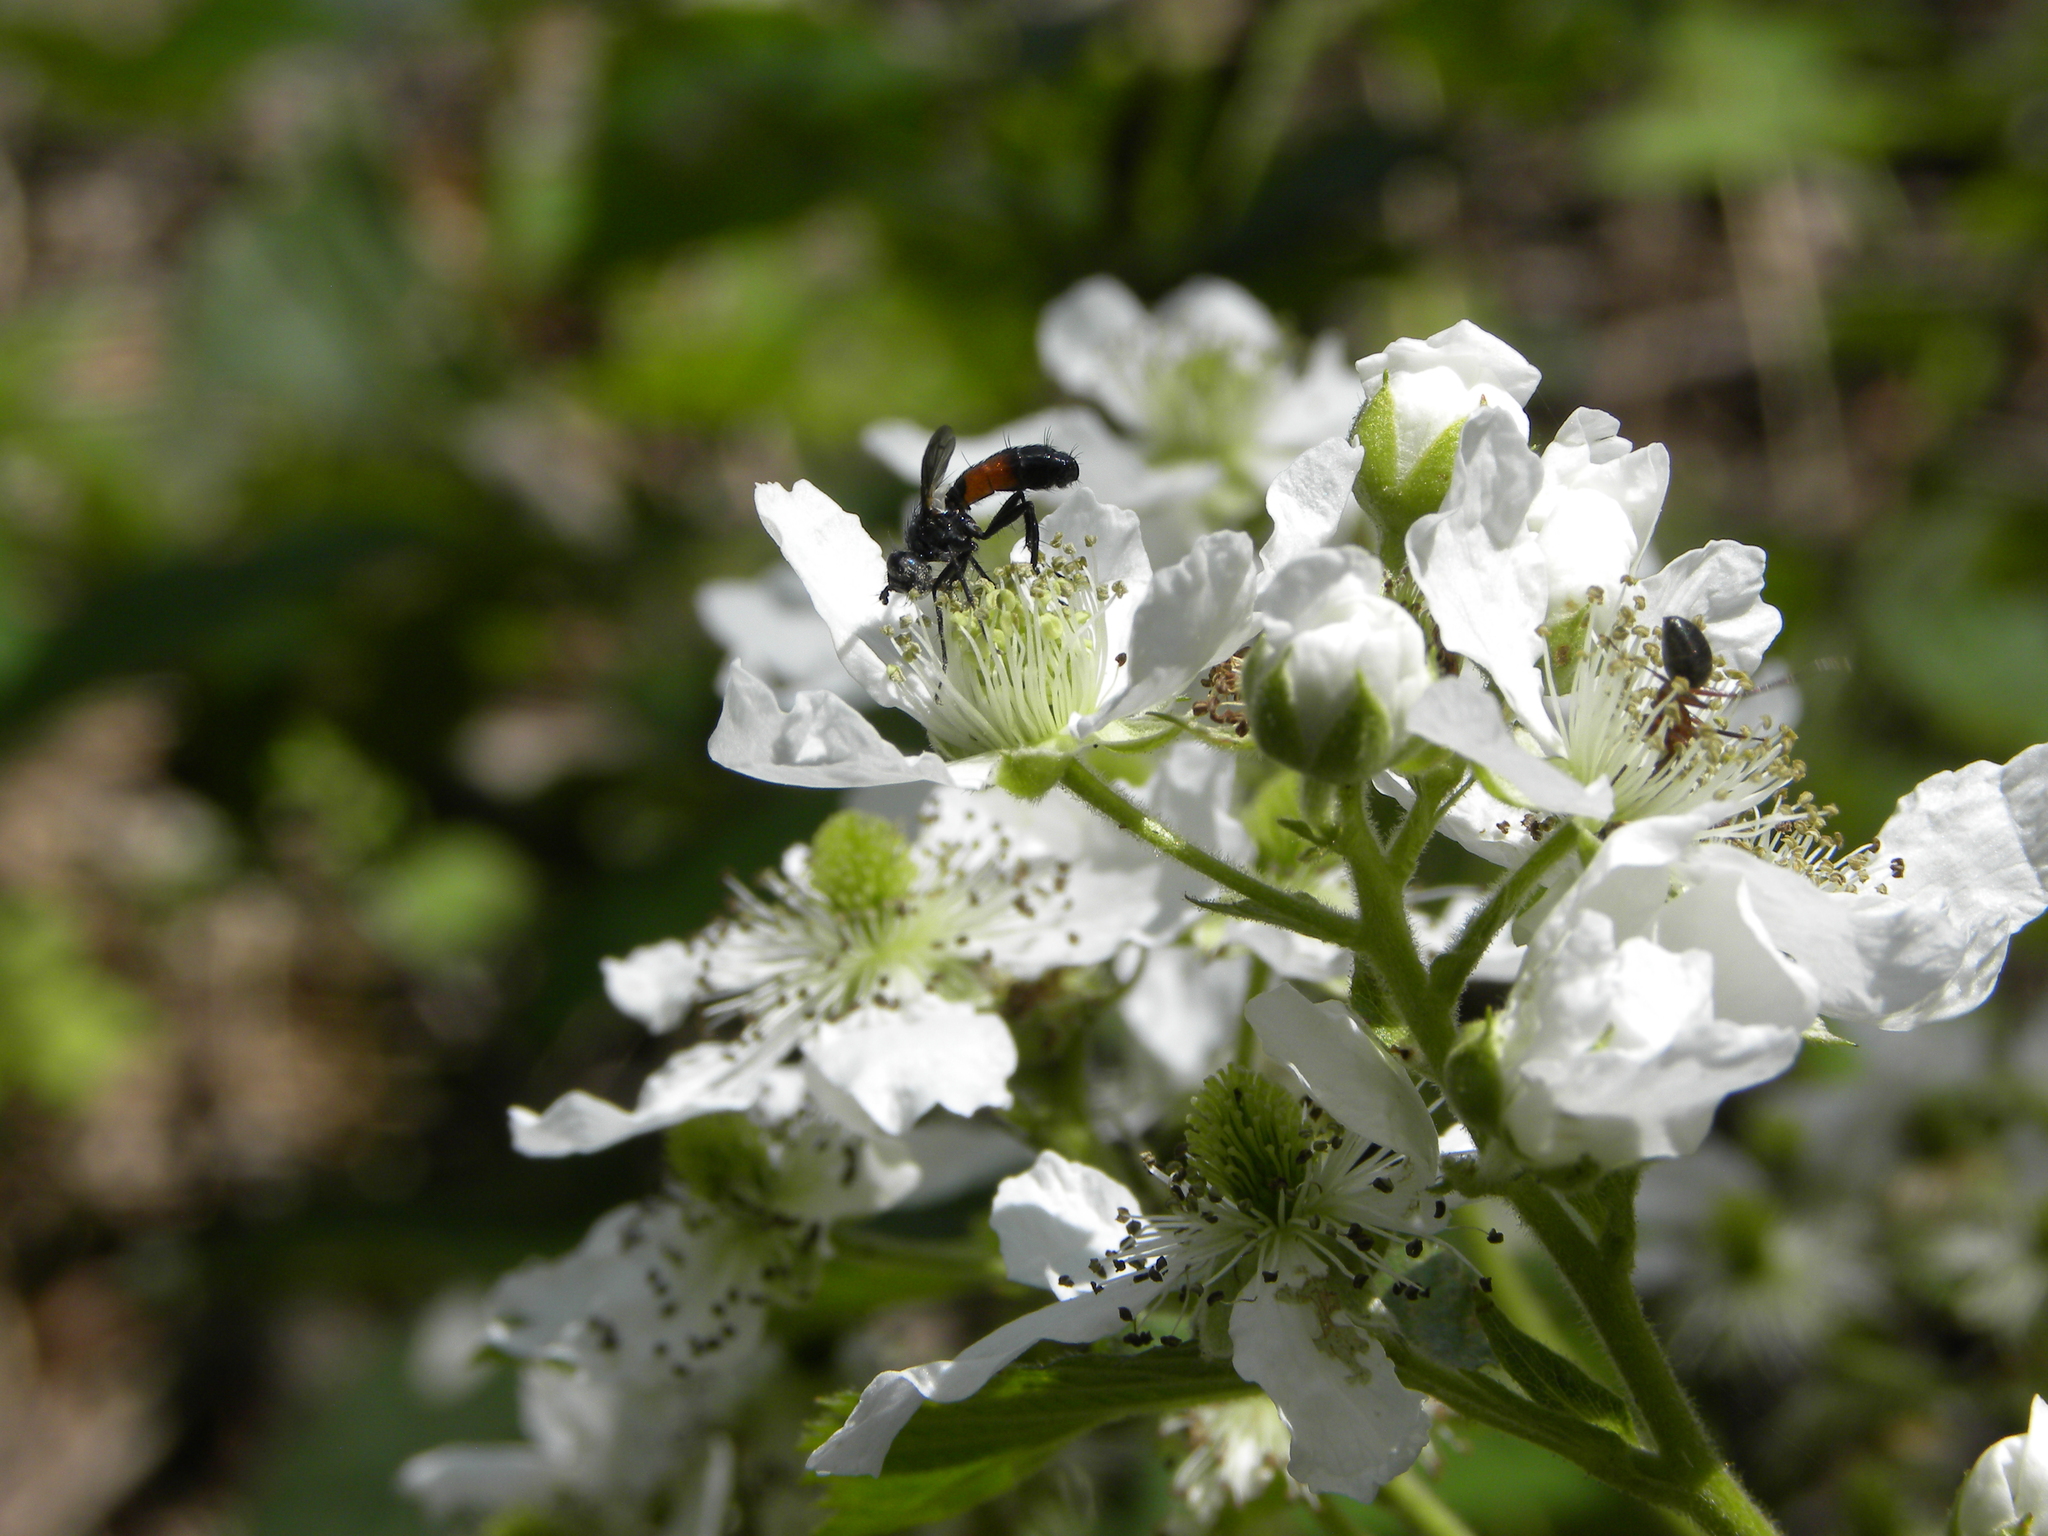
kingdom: Animalia
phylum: Arthropoda
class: Insecta
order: Diptera
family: Tachinidae
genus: Cylindromyia
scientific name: Cylindromyia
